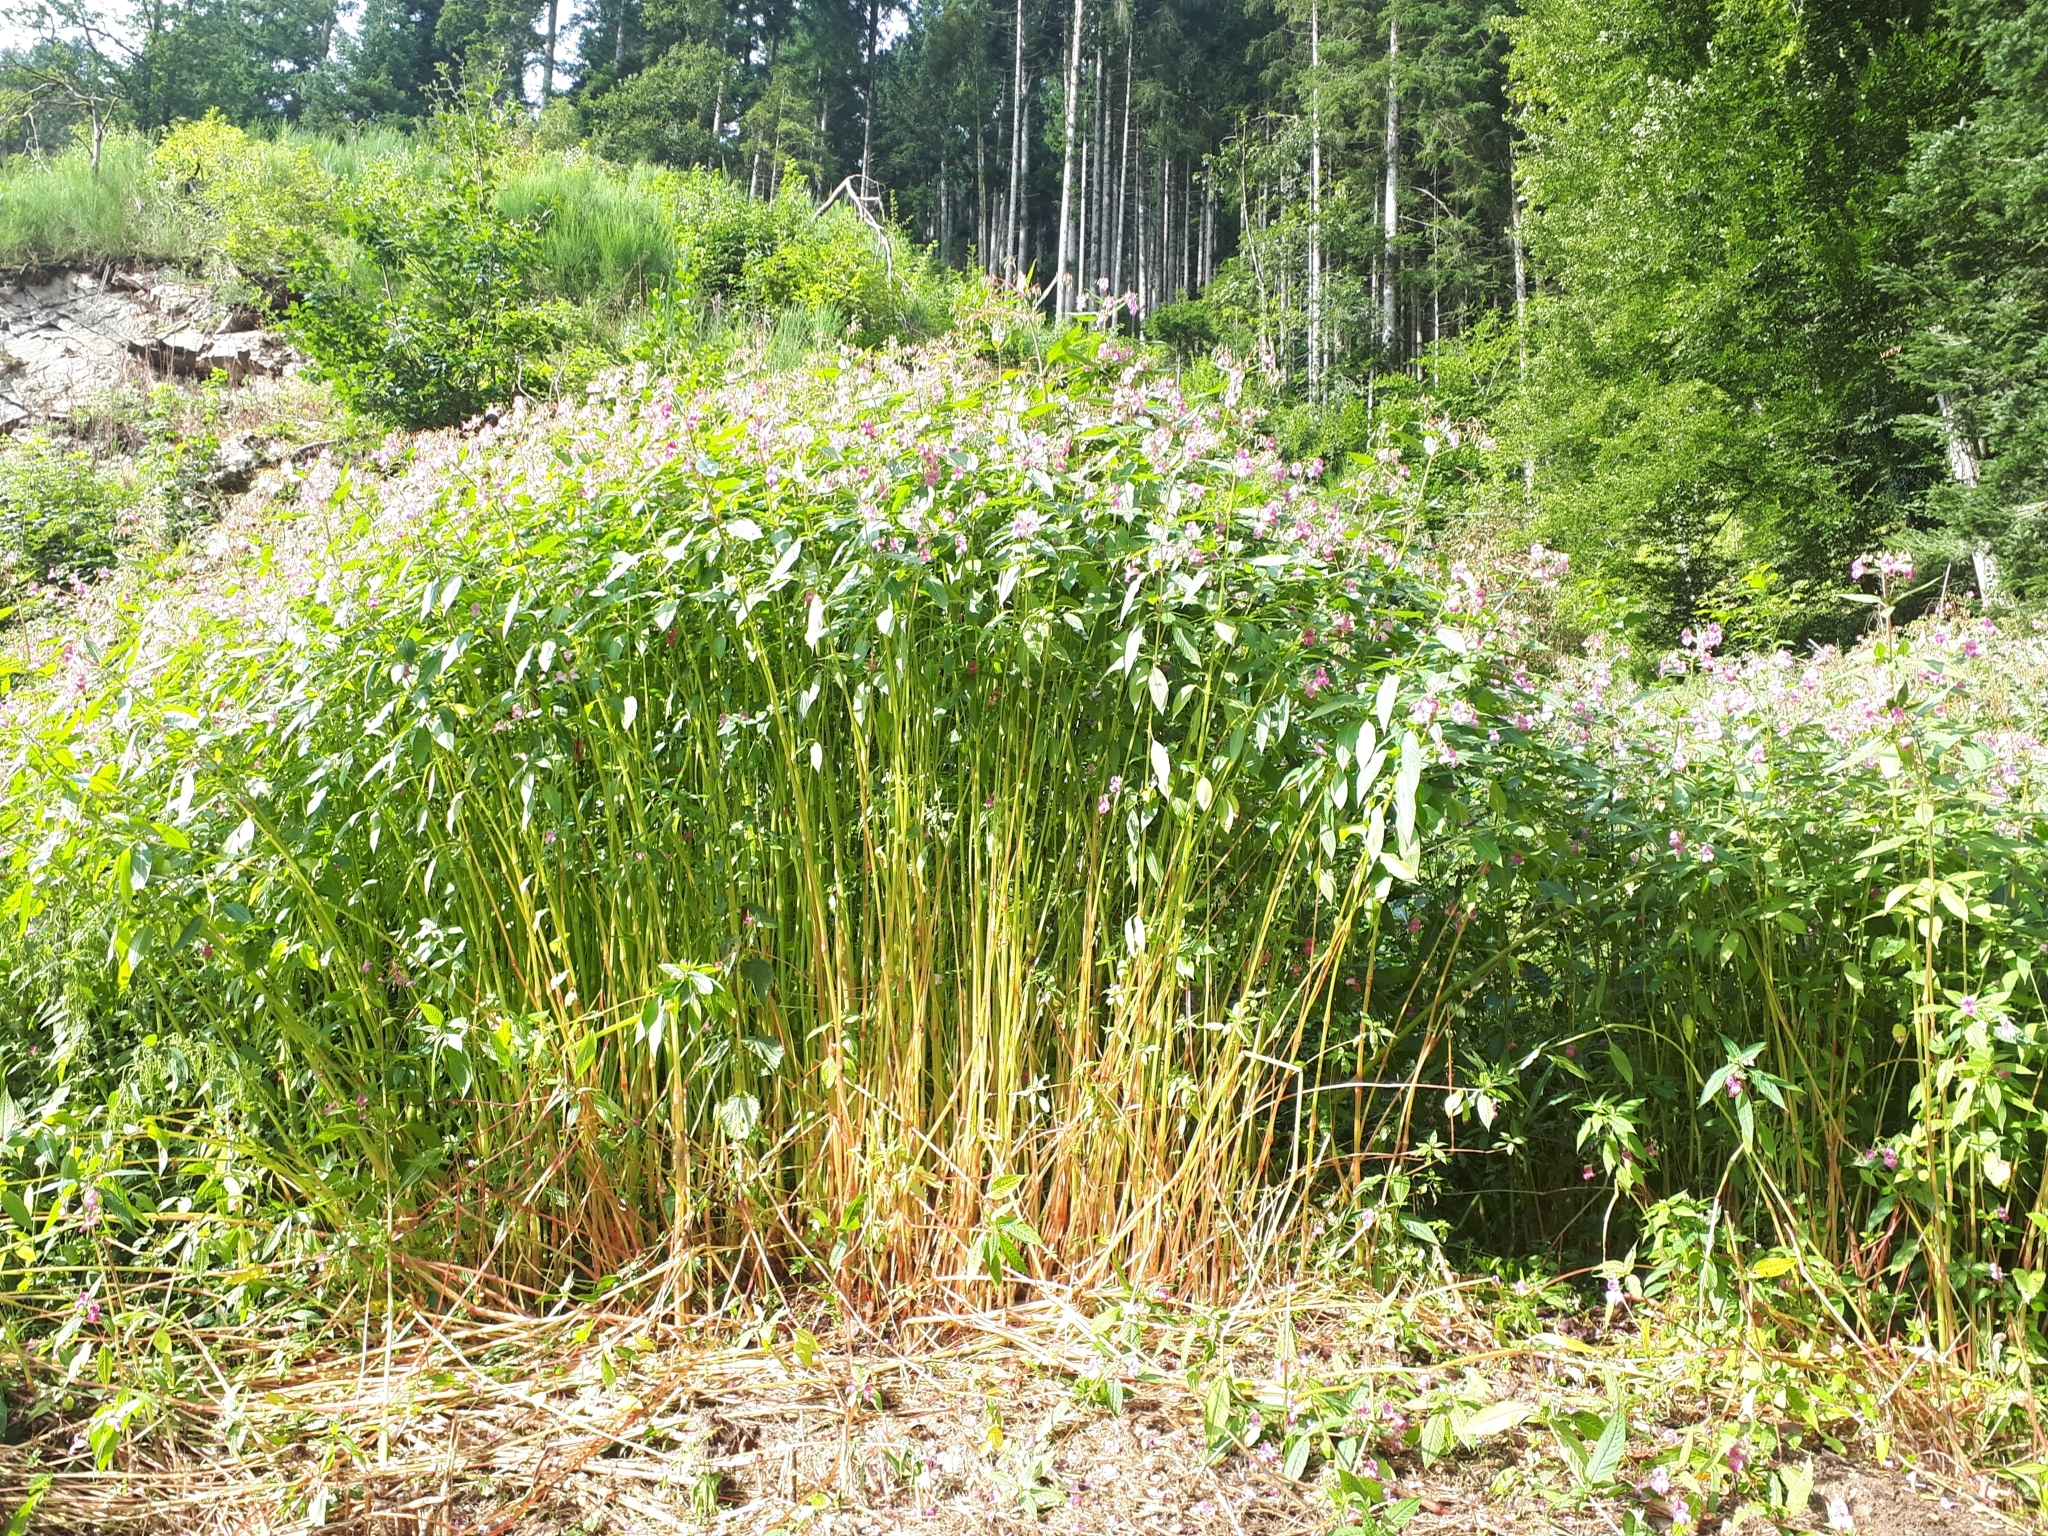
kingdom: Plantae
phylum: Tracheophyta
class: Magnoliopsida
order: Ericales
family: Balsaminaceae
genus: Impatiens
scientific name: Impatiens glandulifera
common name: Himalayan balsam
